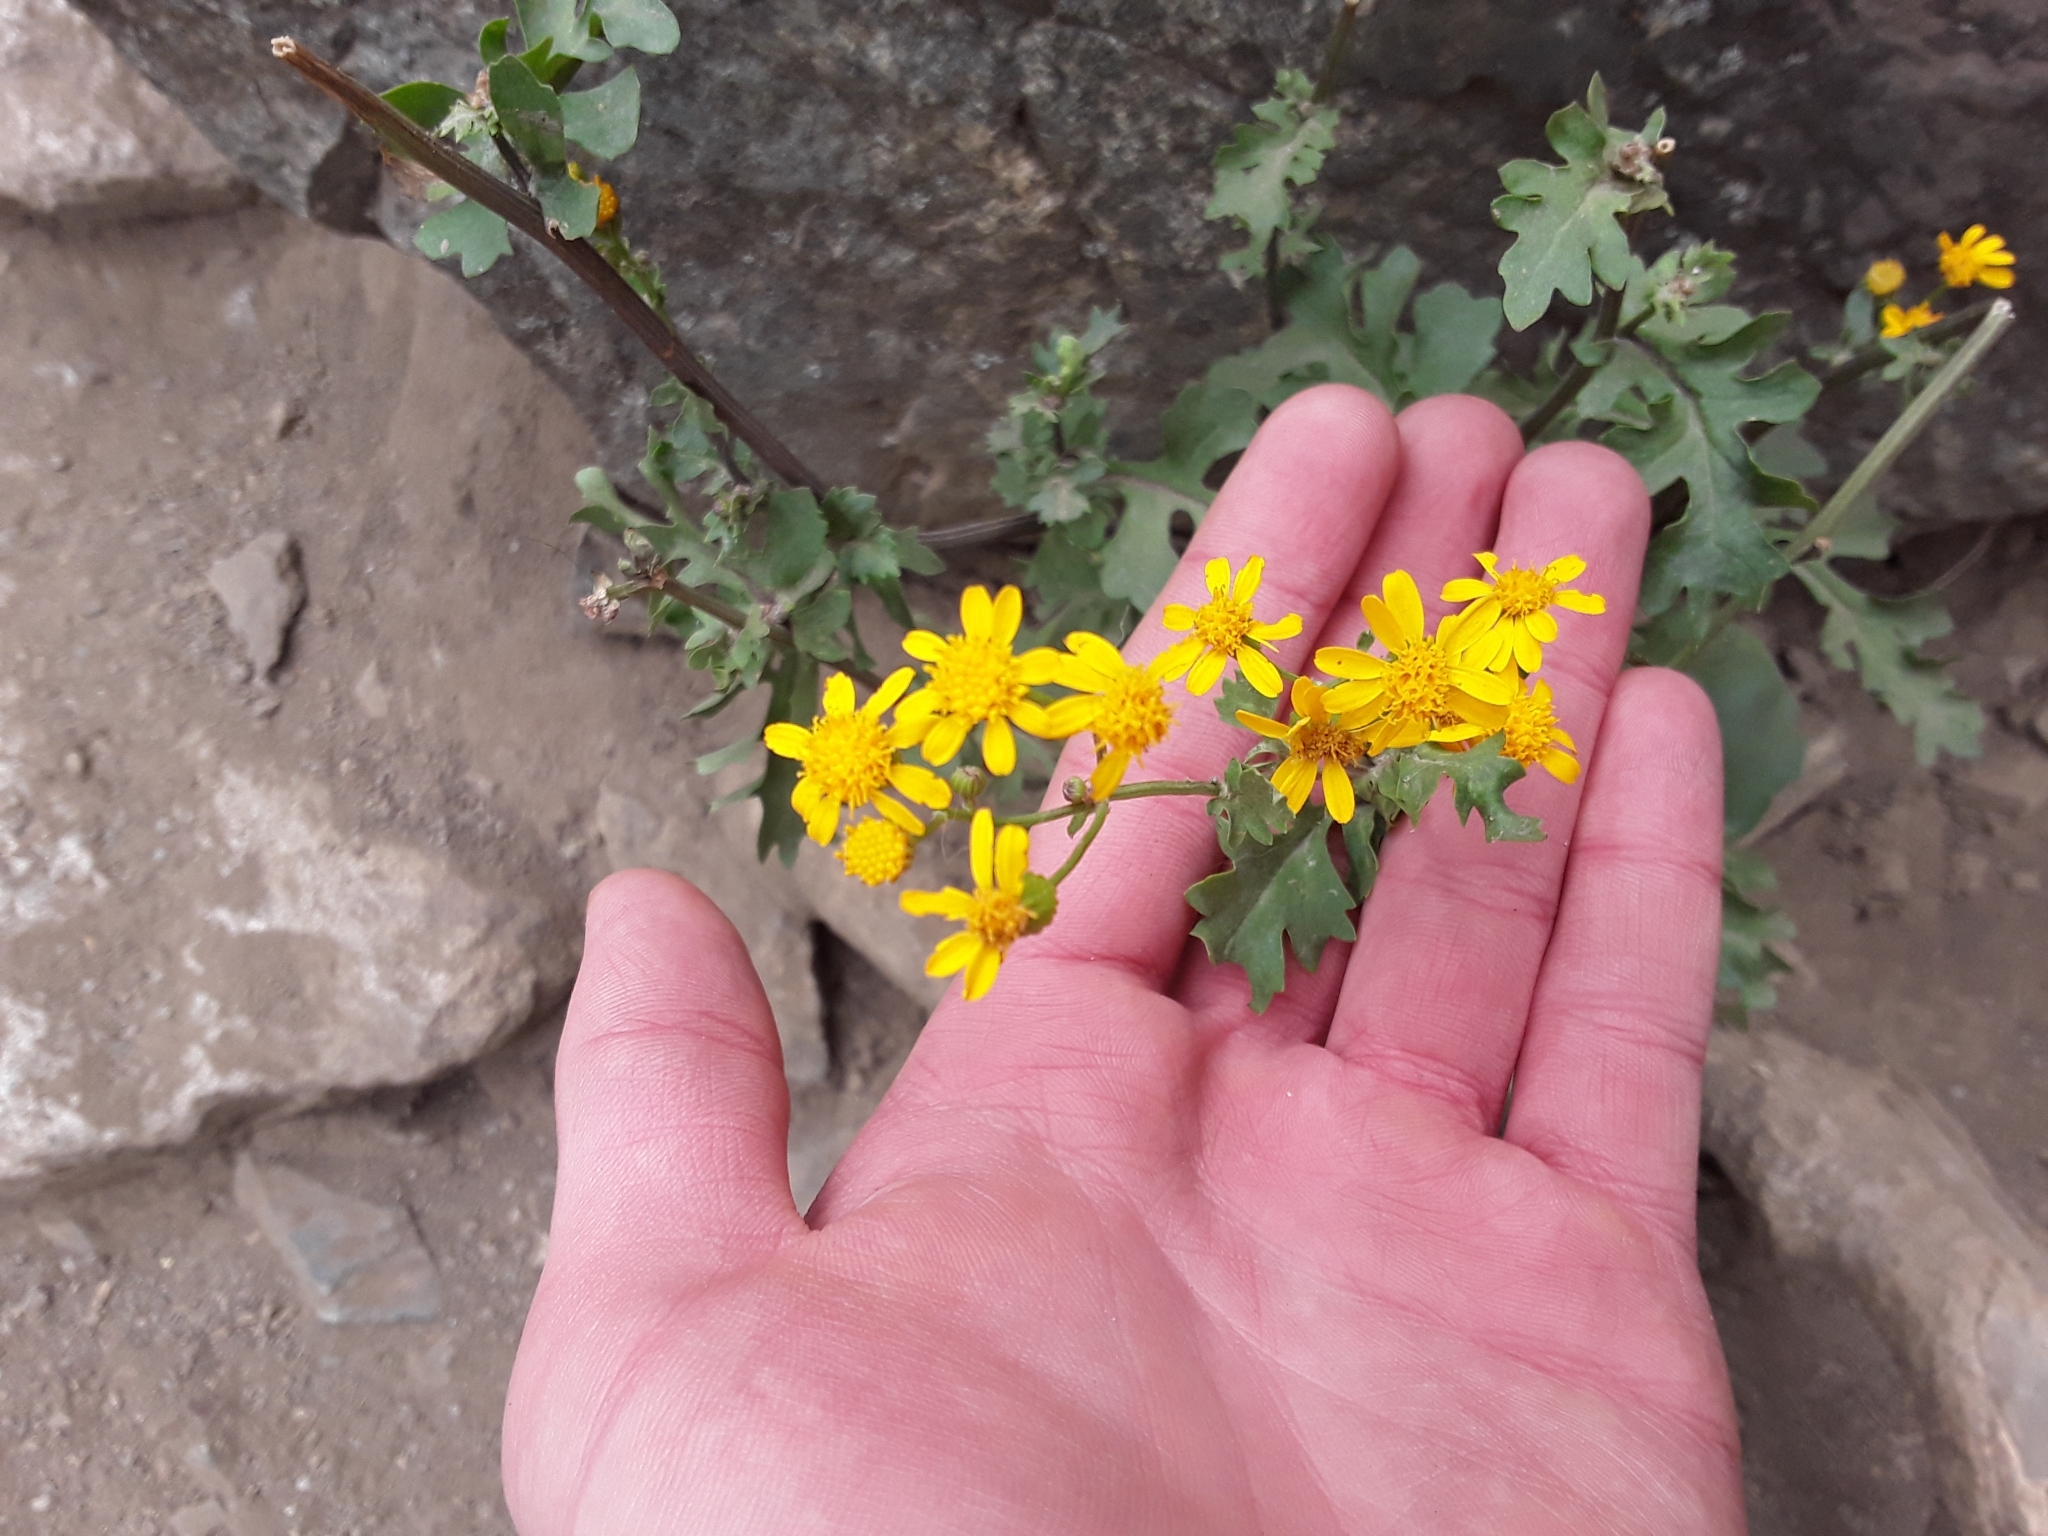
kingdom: Plantae
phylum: Tracheophyta
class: Magnoliopsida
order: Asterales
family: Asteraceae
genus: Packera
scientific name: Packera multilobata
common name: Lobe-leaf groundsel
